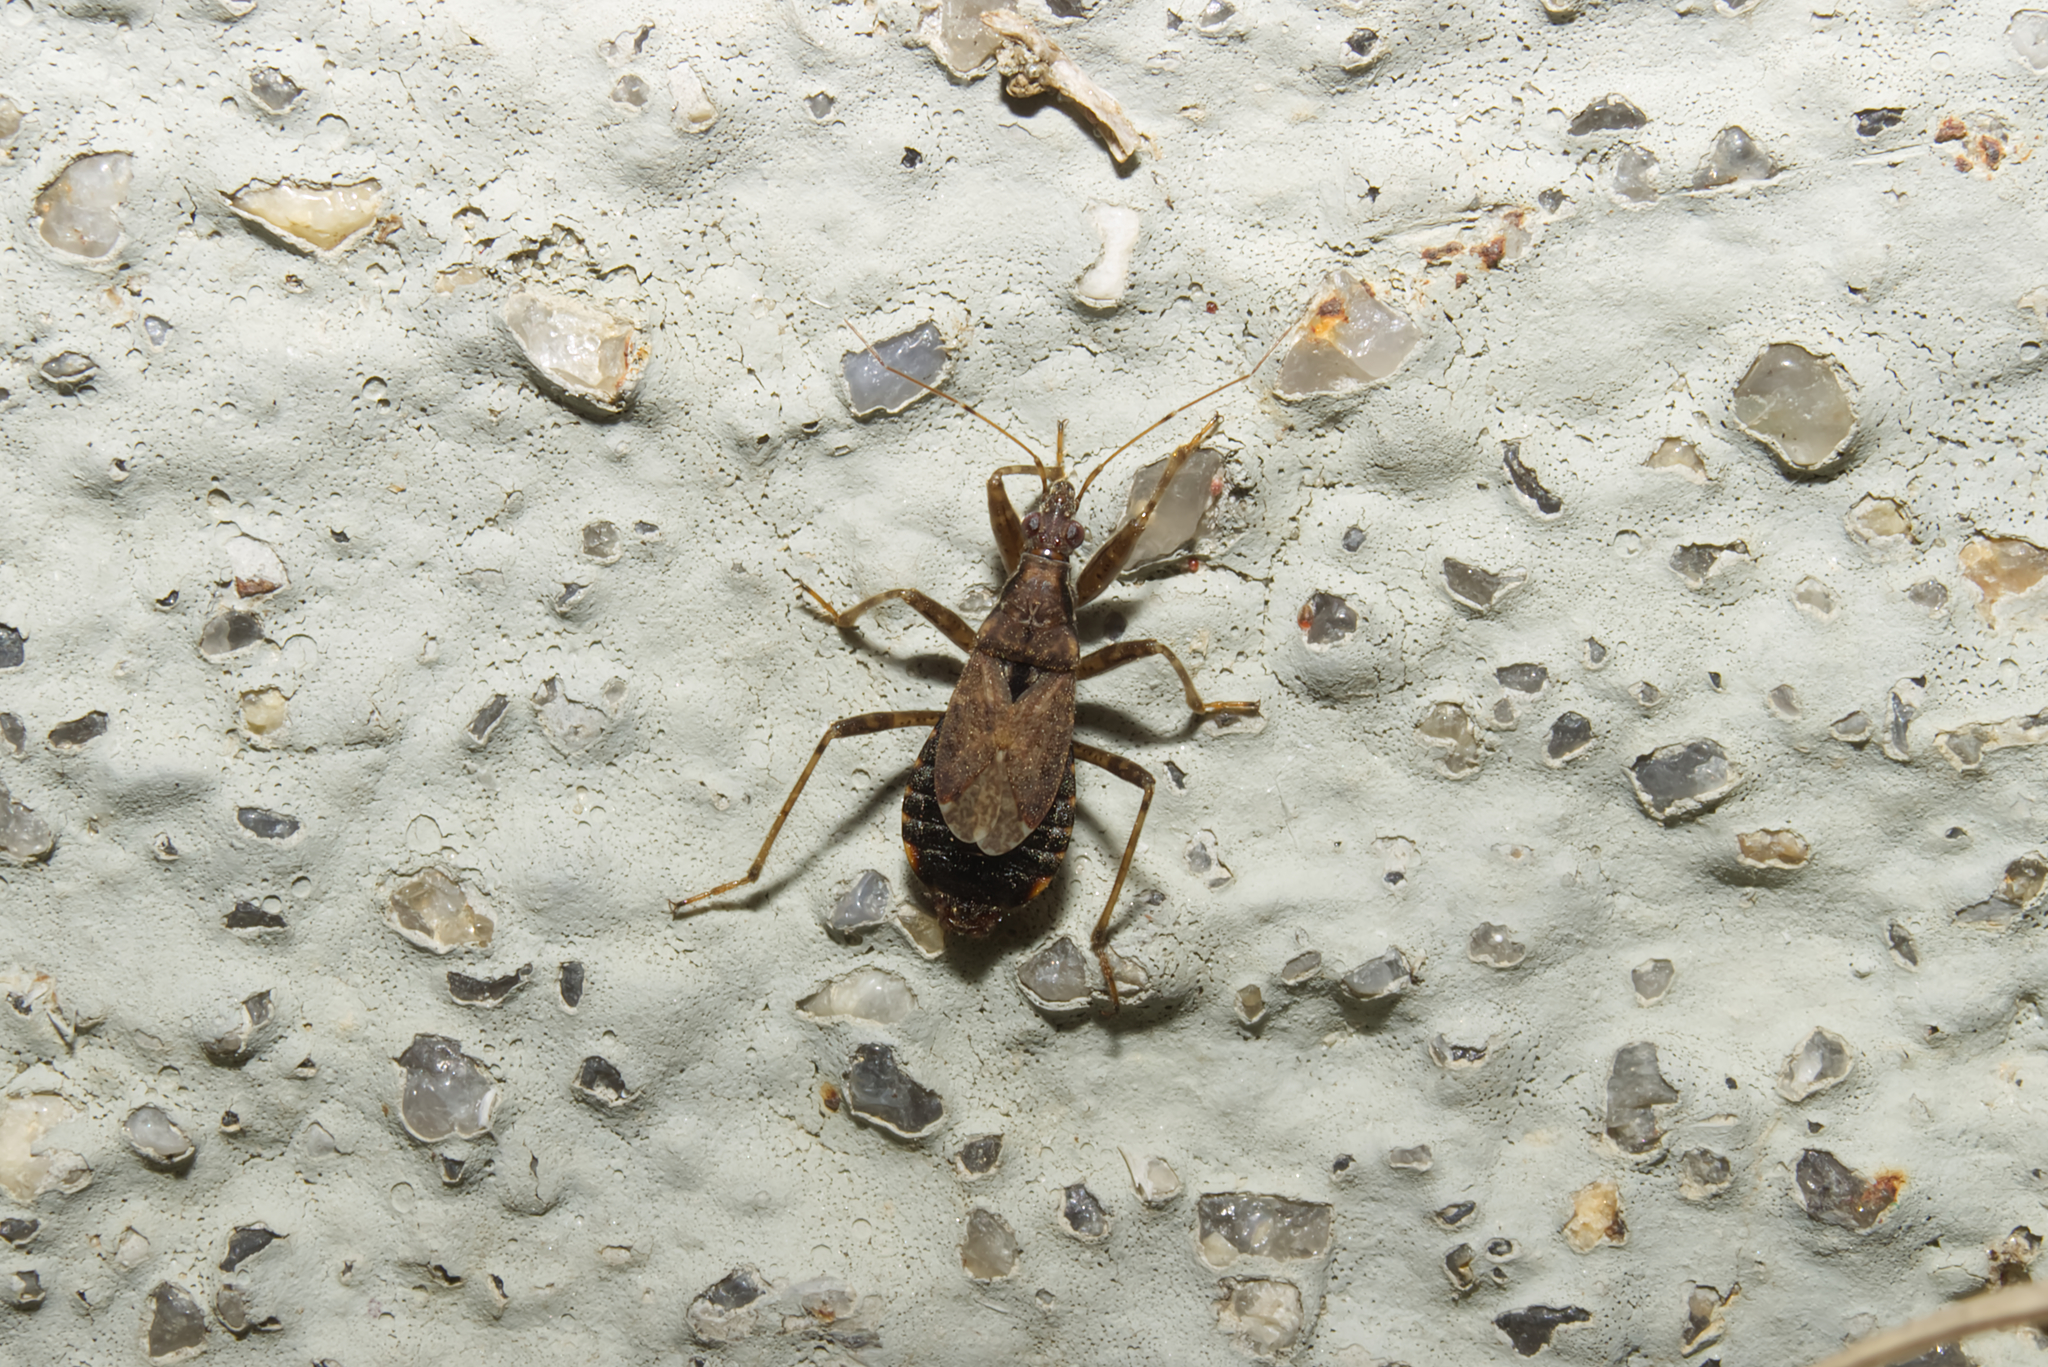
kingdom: Animalia
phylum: Arthropoda
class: Insecta
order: Hemiptera
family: Nabidae
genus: Himacerus
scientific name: Himacerus mirmicoides
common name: Ant damsel bug
